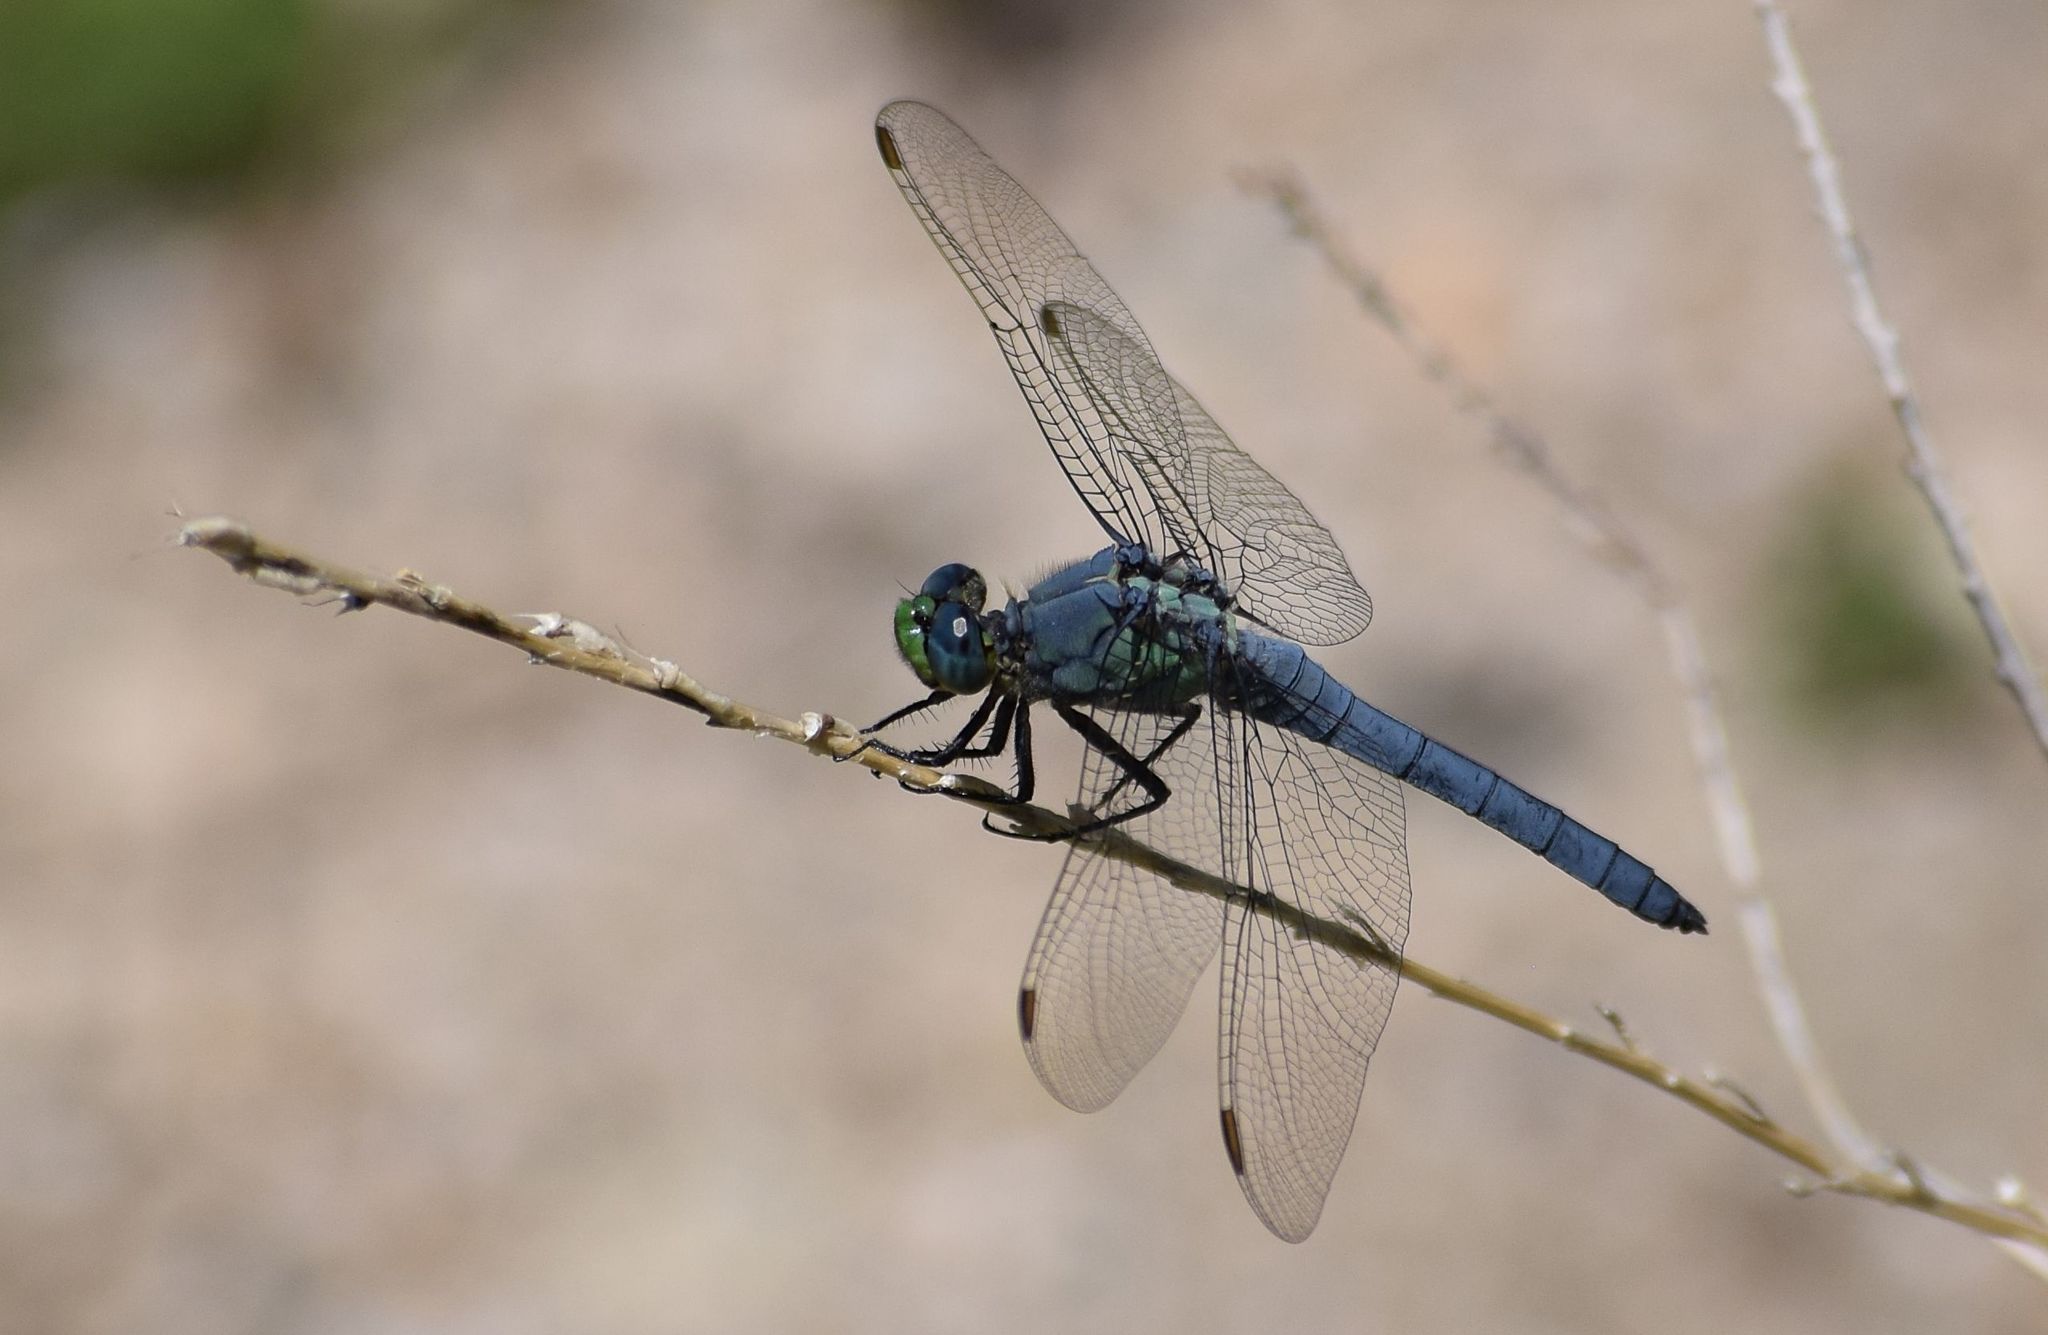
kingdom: Animalia
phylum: Arthropoda
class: Insecta
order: Odonata
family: Libellulidae
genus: Erythemis
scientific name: Erythemis collocata
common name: Western pondhawk
